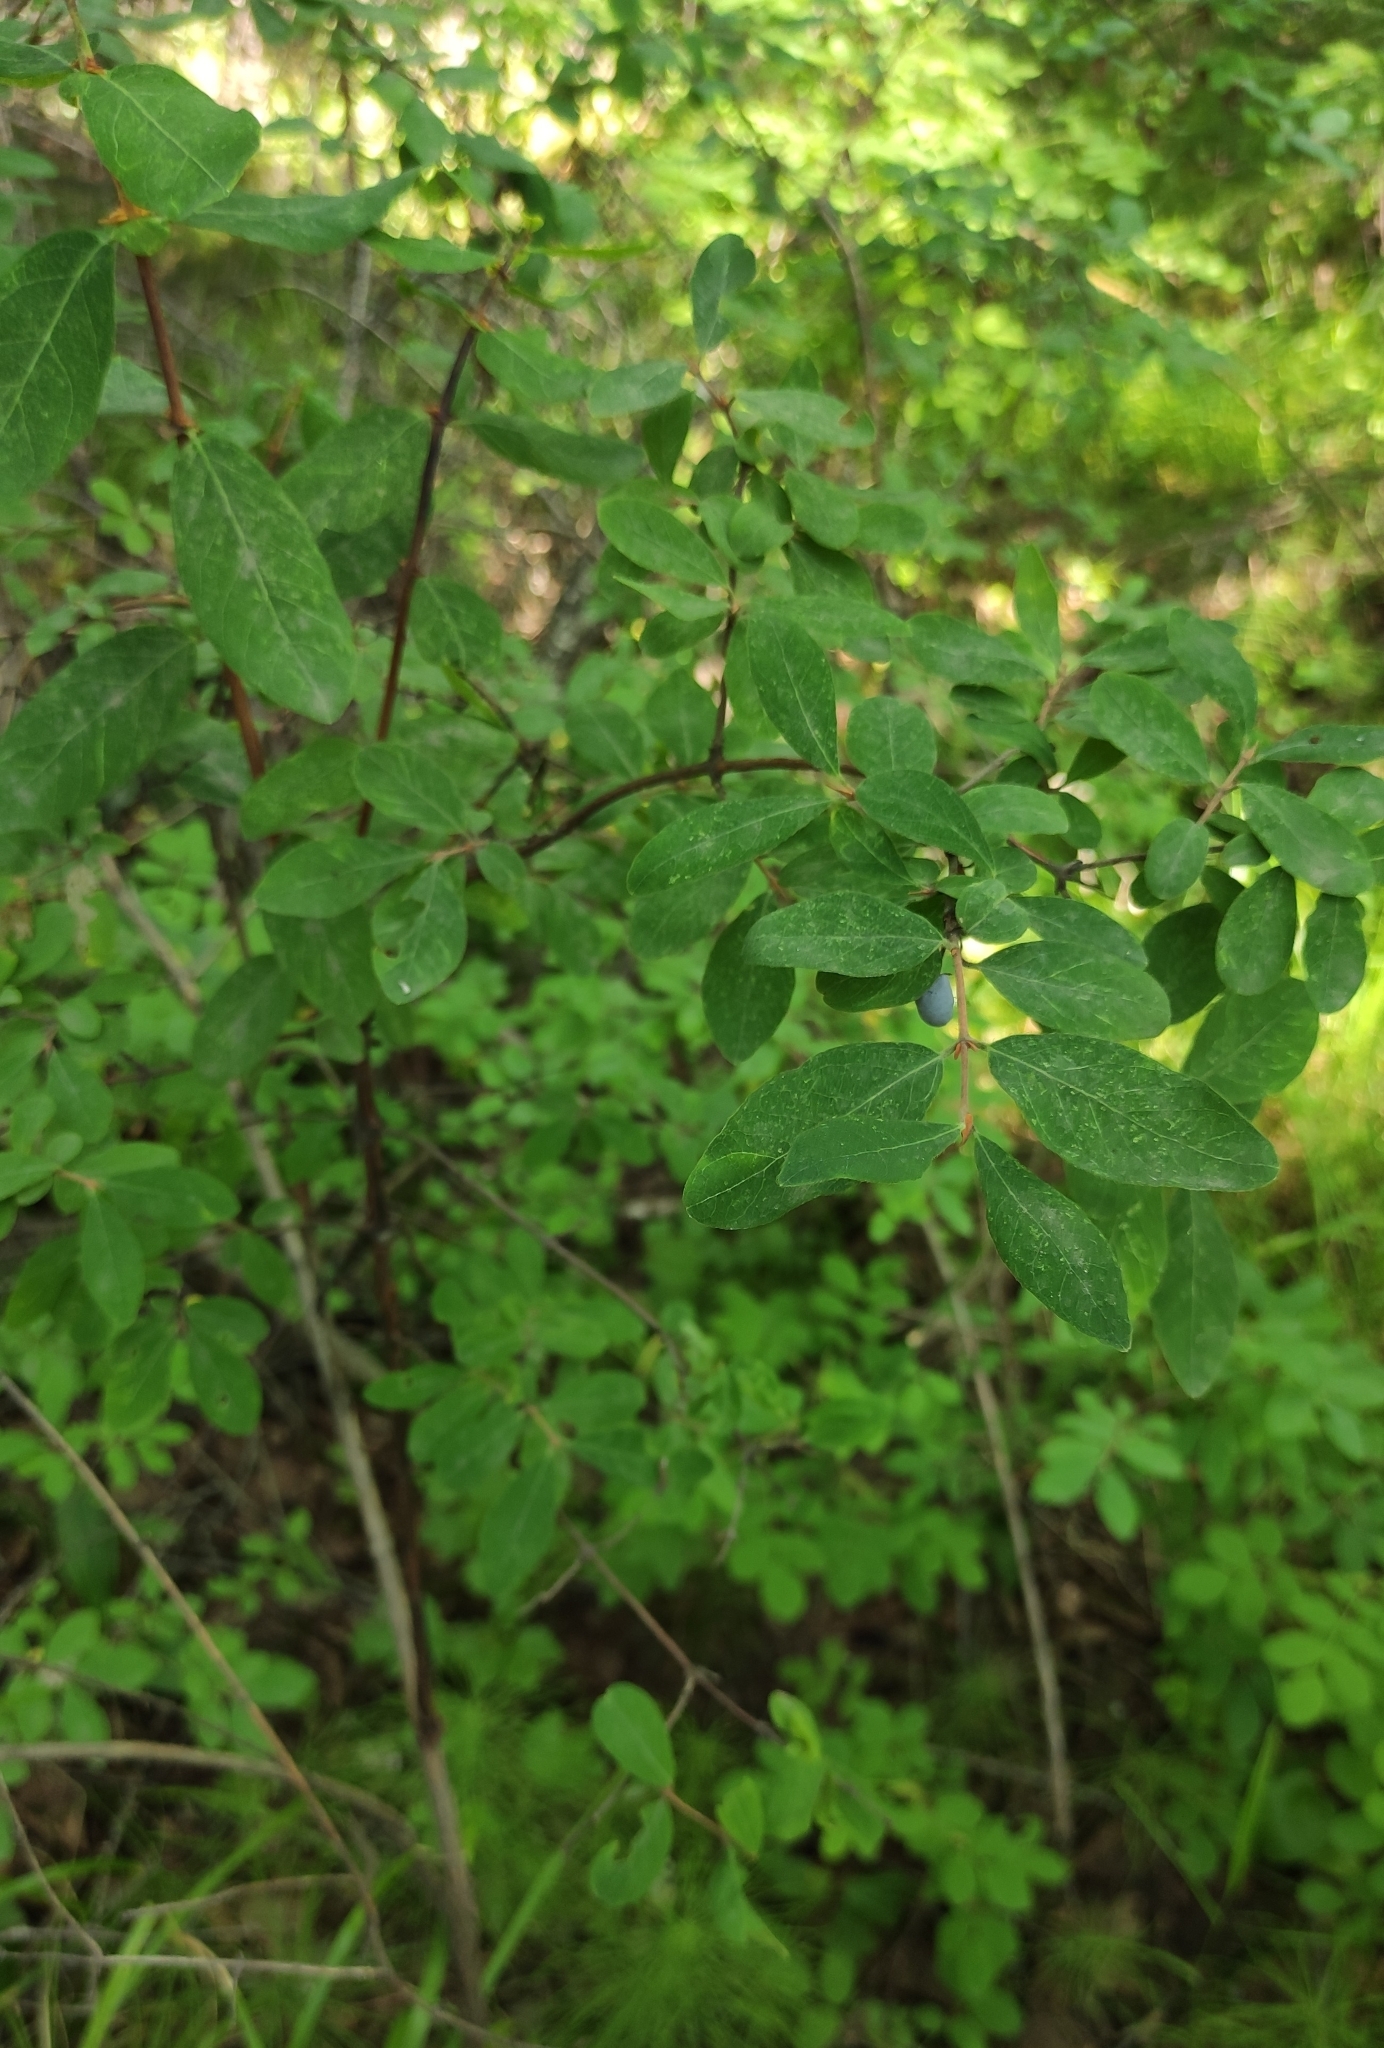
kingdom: Plantae
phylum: Tracheophyta
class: Magnoliopsida
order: Dipsacales
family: Caprifoliaceae
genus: Lonicera
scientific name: Lonicera caerulea
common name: Blue honeysuckle
